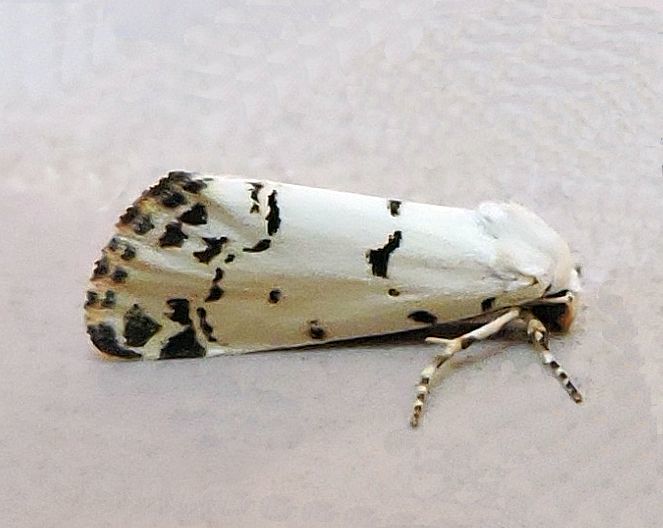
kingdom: Animalia
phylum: Arthropoda
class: Insecta
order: Lepidoptera
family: Noctuidae
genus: Grotella
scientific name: Grotella soror
